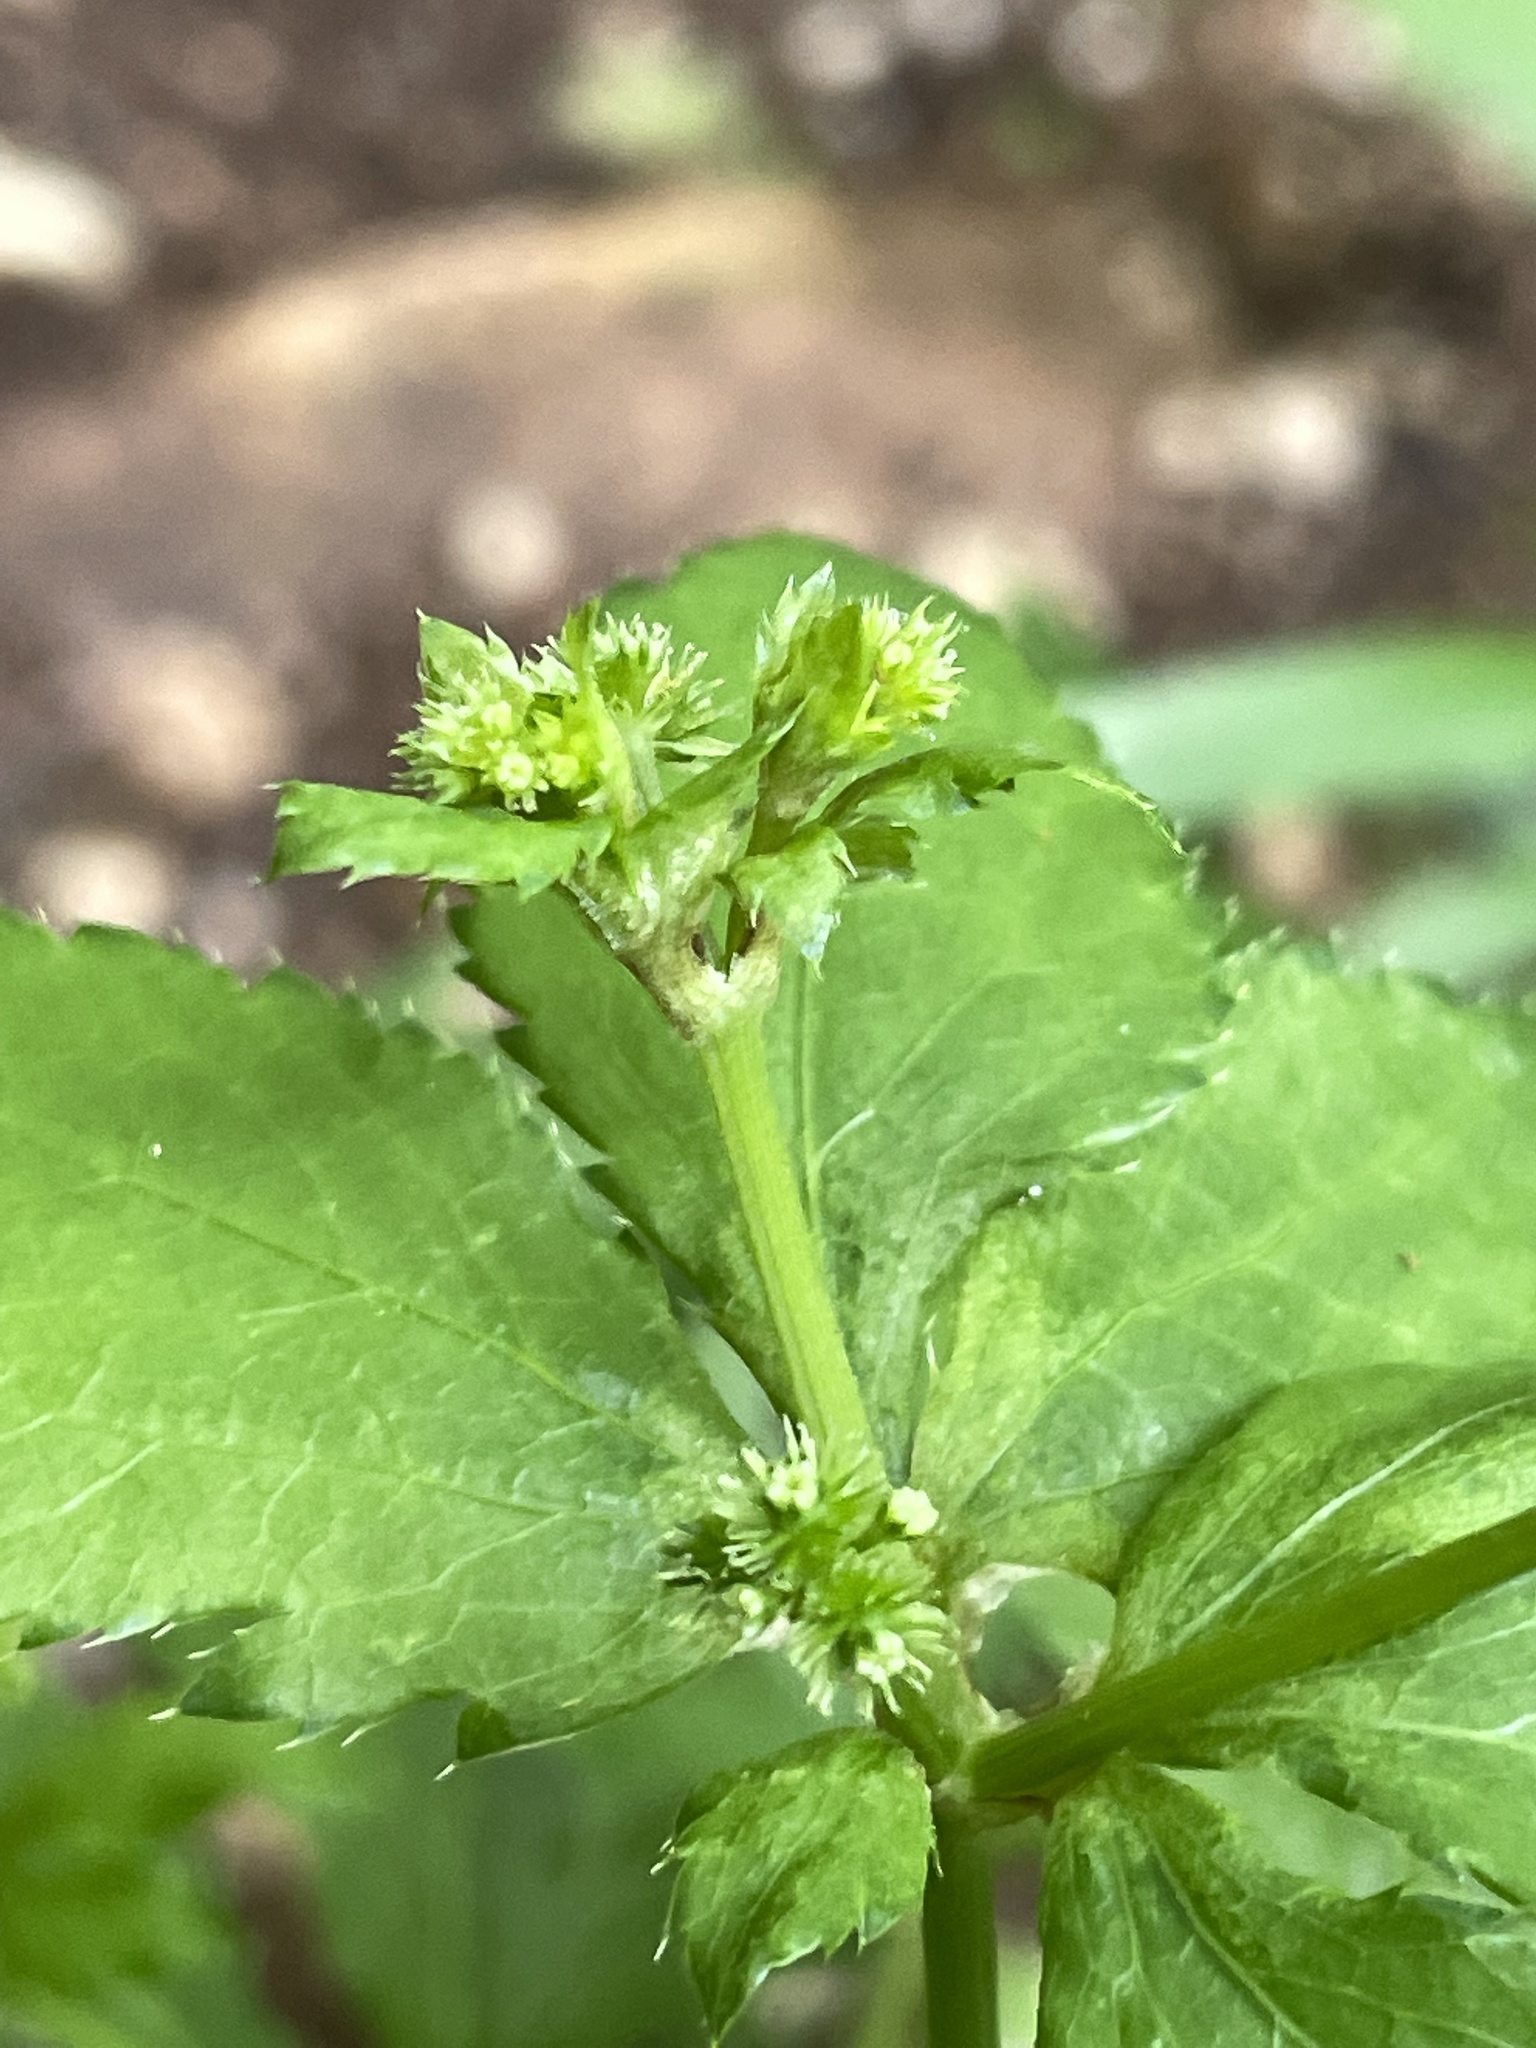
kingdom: Plantae
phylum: Tracheophyta
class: Magnoliopsida
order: Apiales
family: Apiaceae
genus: Sanicula
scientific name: Sanicula canadensis
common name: Canada sanicle
